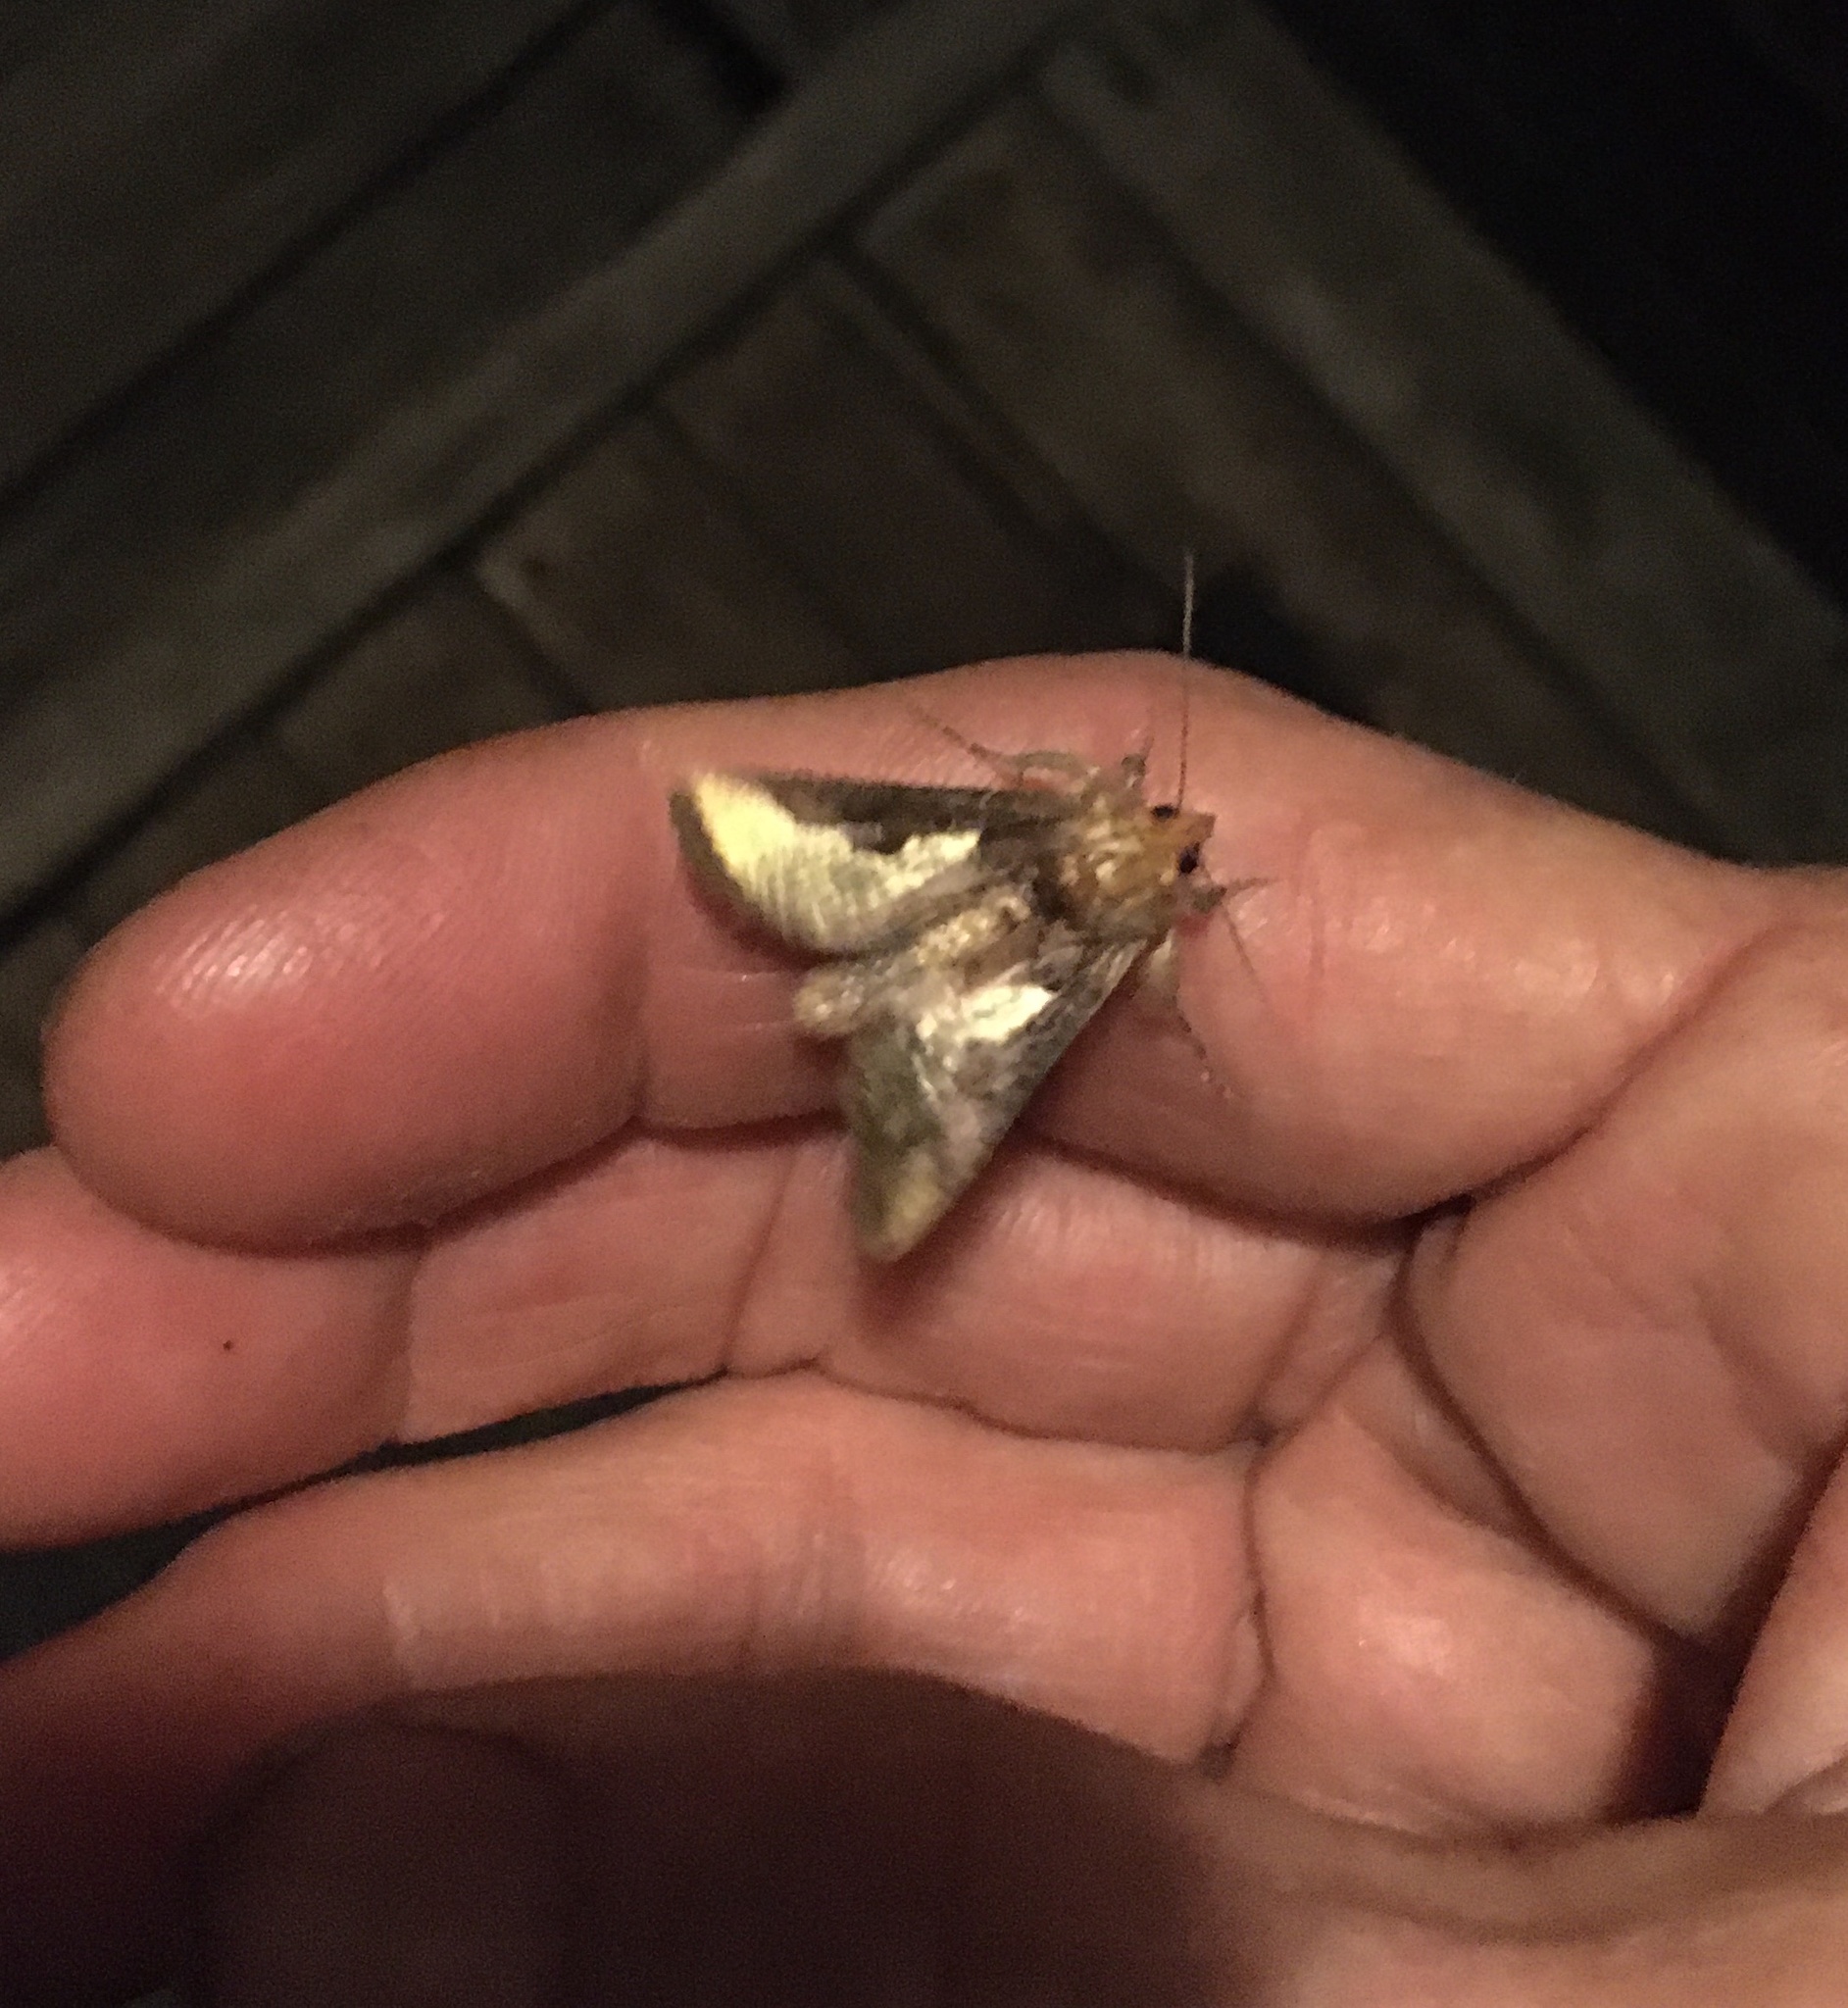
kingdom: Animalia
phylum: Arthropoda
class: Insecta
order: Lepidoptera
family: Noctuidae
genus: Thysanoplusia
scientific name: Thysanoplusia orichalcea
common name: Slender burnished brass, golden plusia
